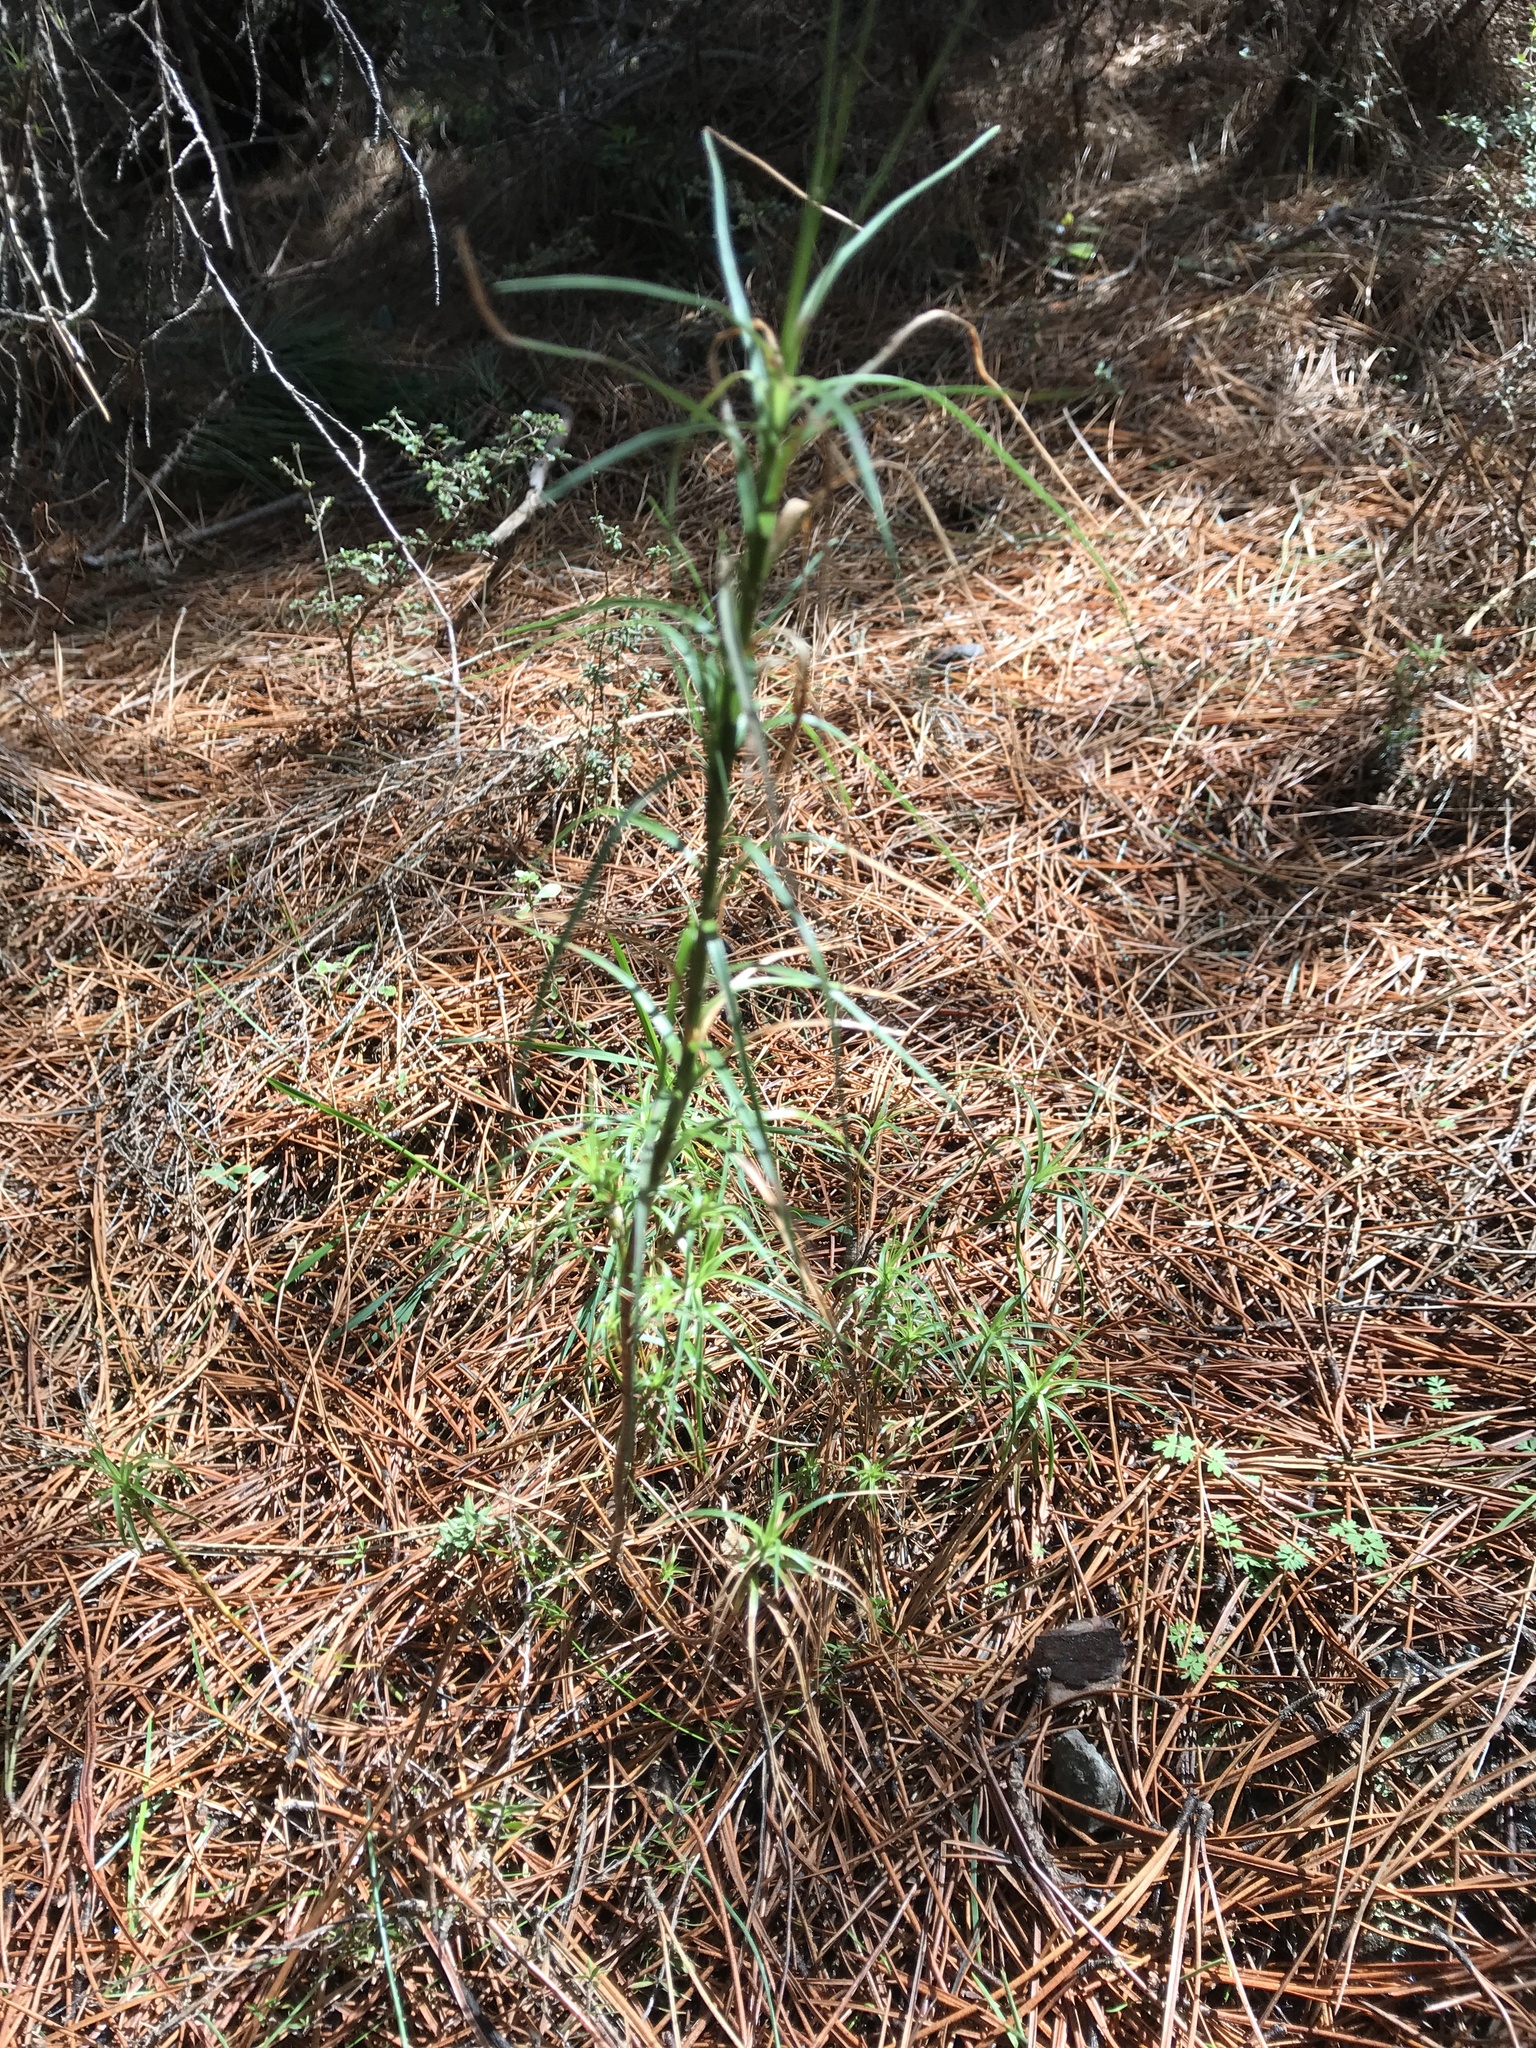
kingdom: Plantae
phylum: Tracheophyta
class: Magnoliopsida
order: Ericales
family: Ericaceae
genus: Dracophyllum
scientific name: Dracophyllum longifolium
